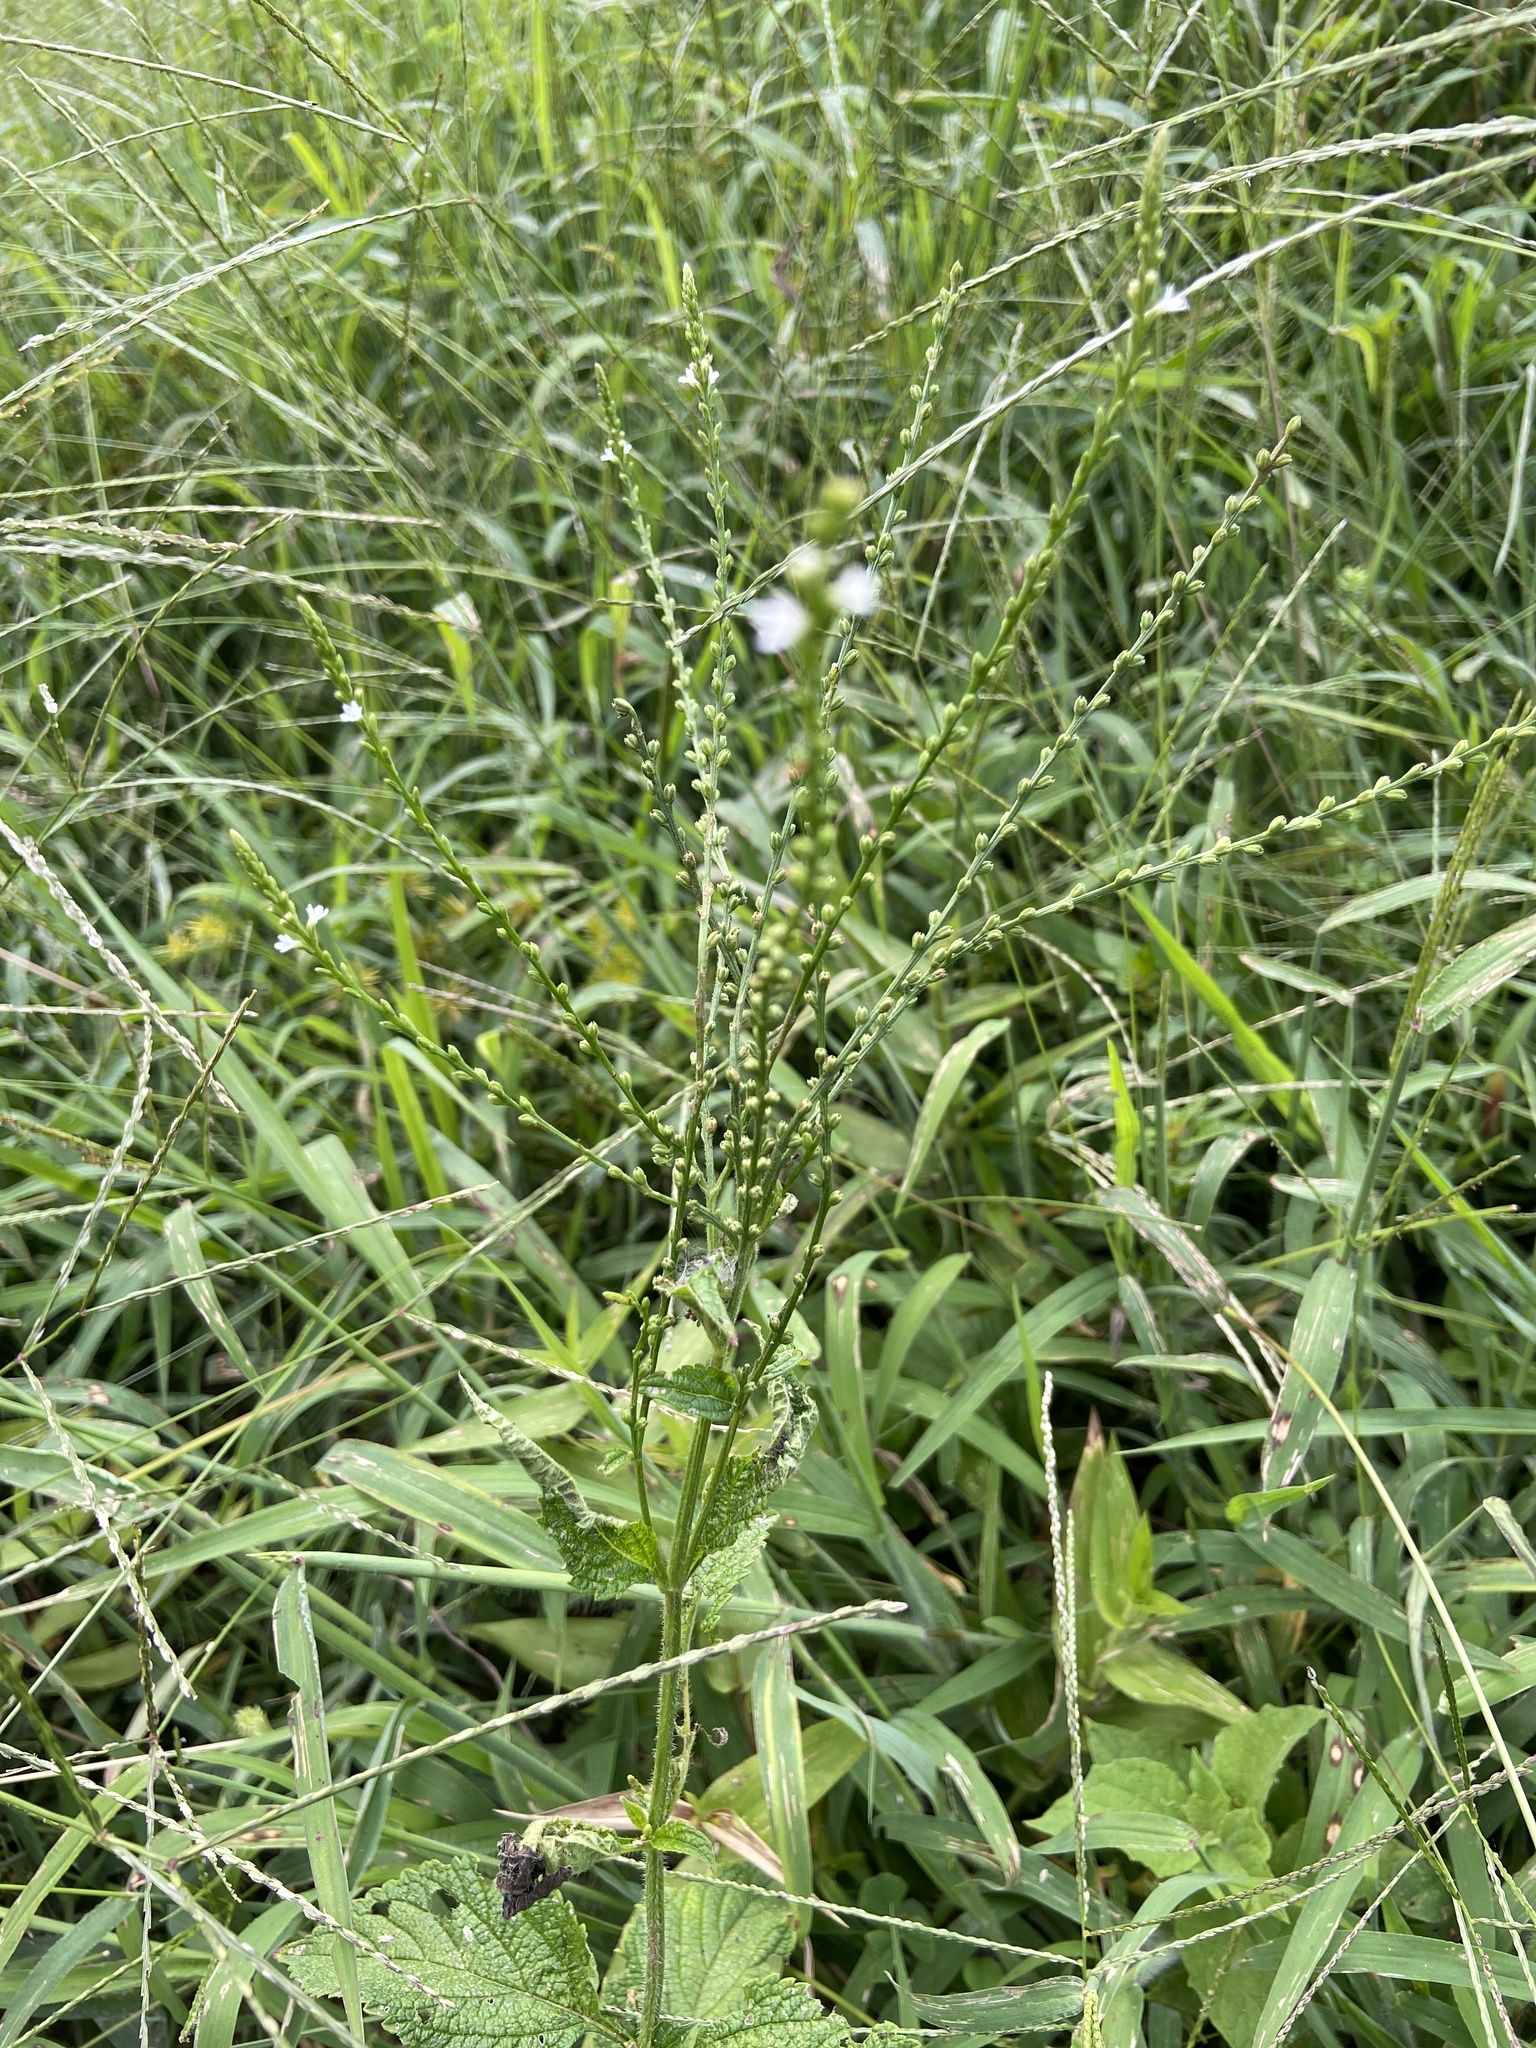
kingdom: Plantae
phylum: Tracheophyta
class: Magnoliopsida
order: Lamiales
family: Verbenaceae
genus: Verbena
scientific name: Verbena urticifolia
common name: Nettle-leaved vervain
